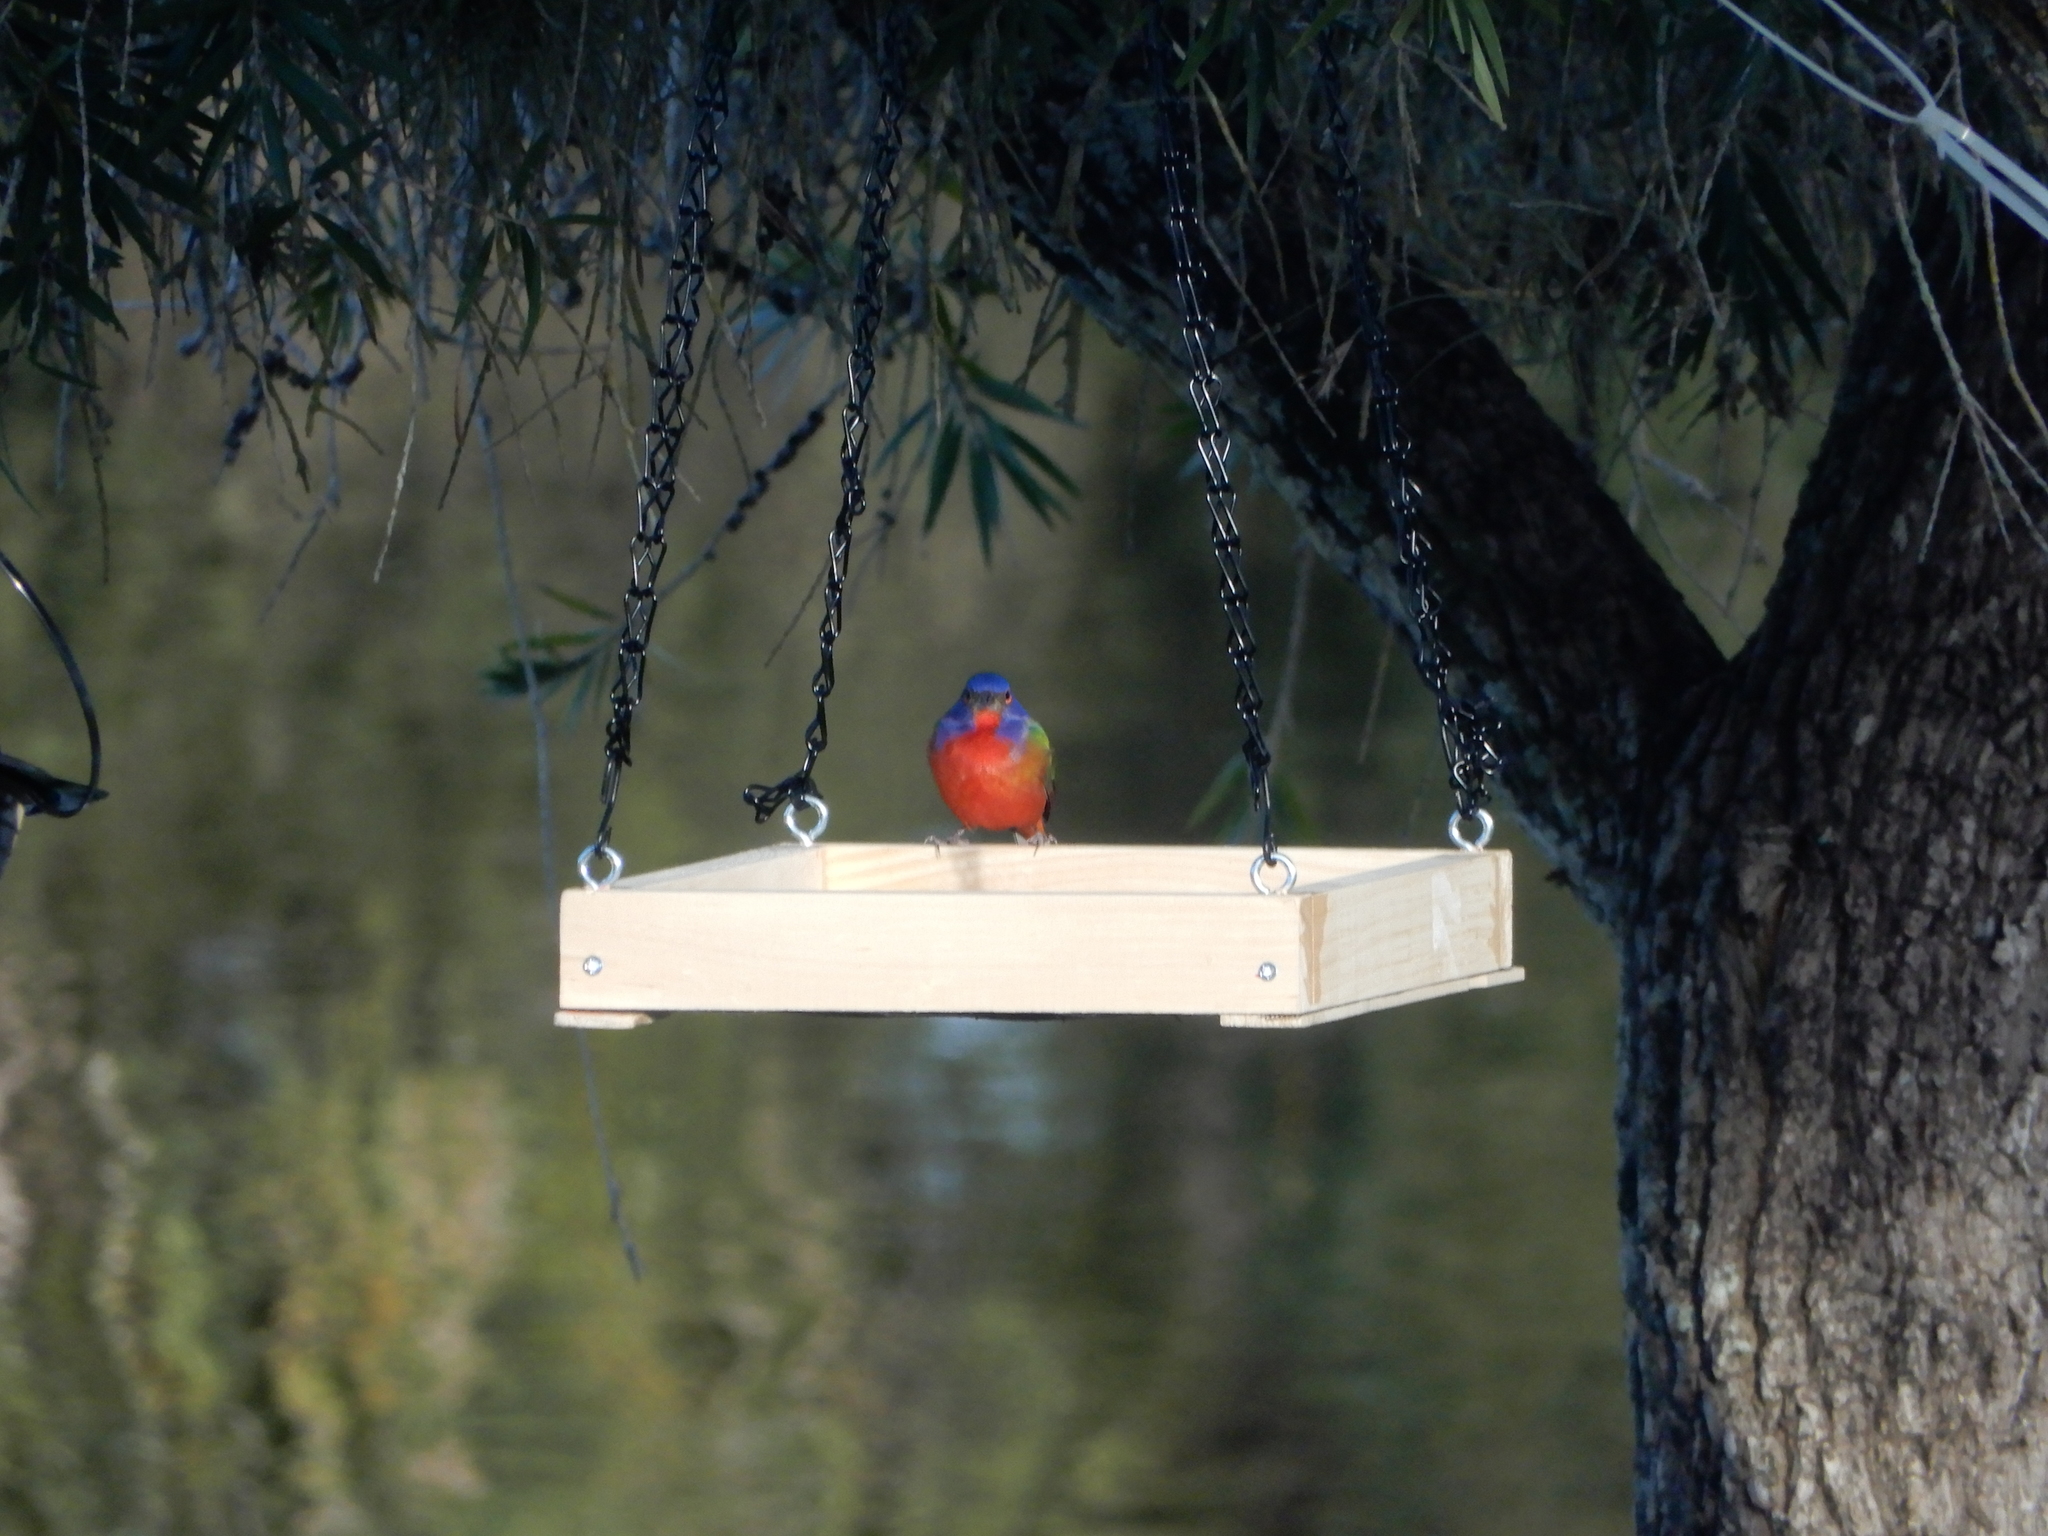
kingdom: Animalia
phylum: Chordata
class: Aves
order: Passeriformes
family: Cardinalidae
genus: Passerina
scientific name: Passerina ciris
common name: Painted bunting
